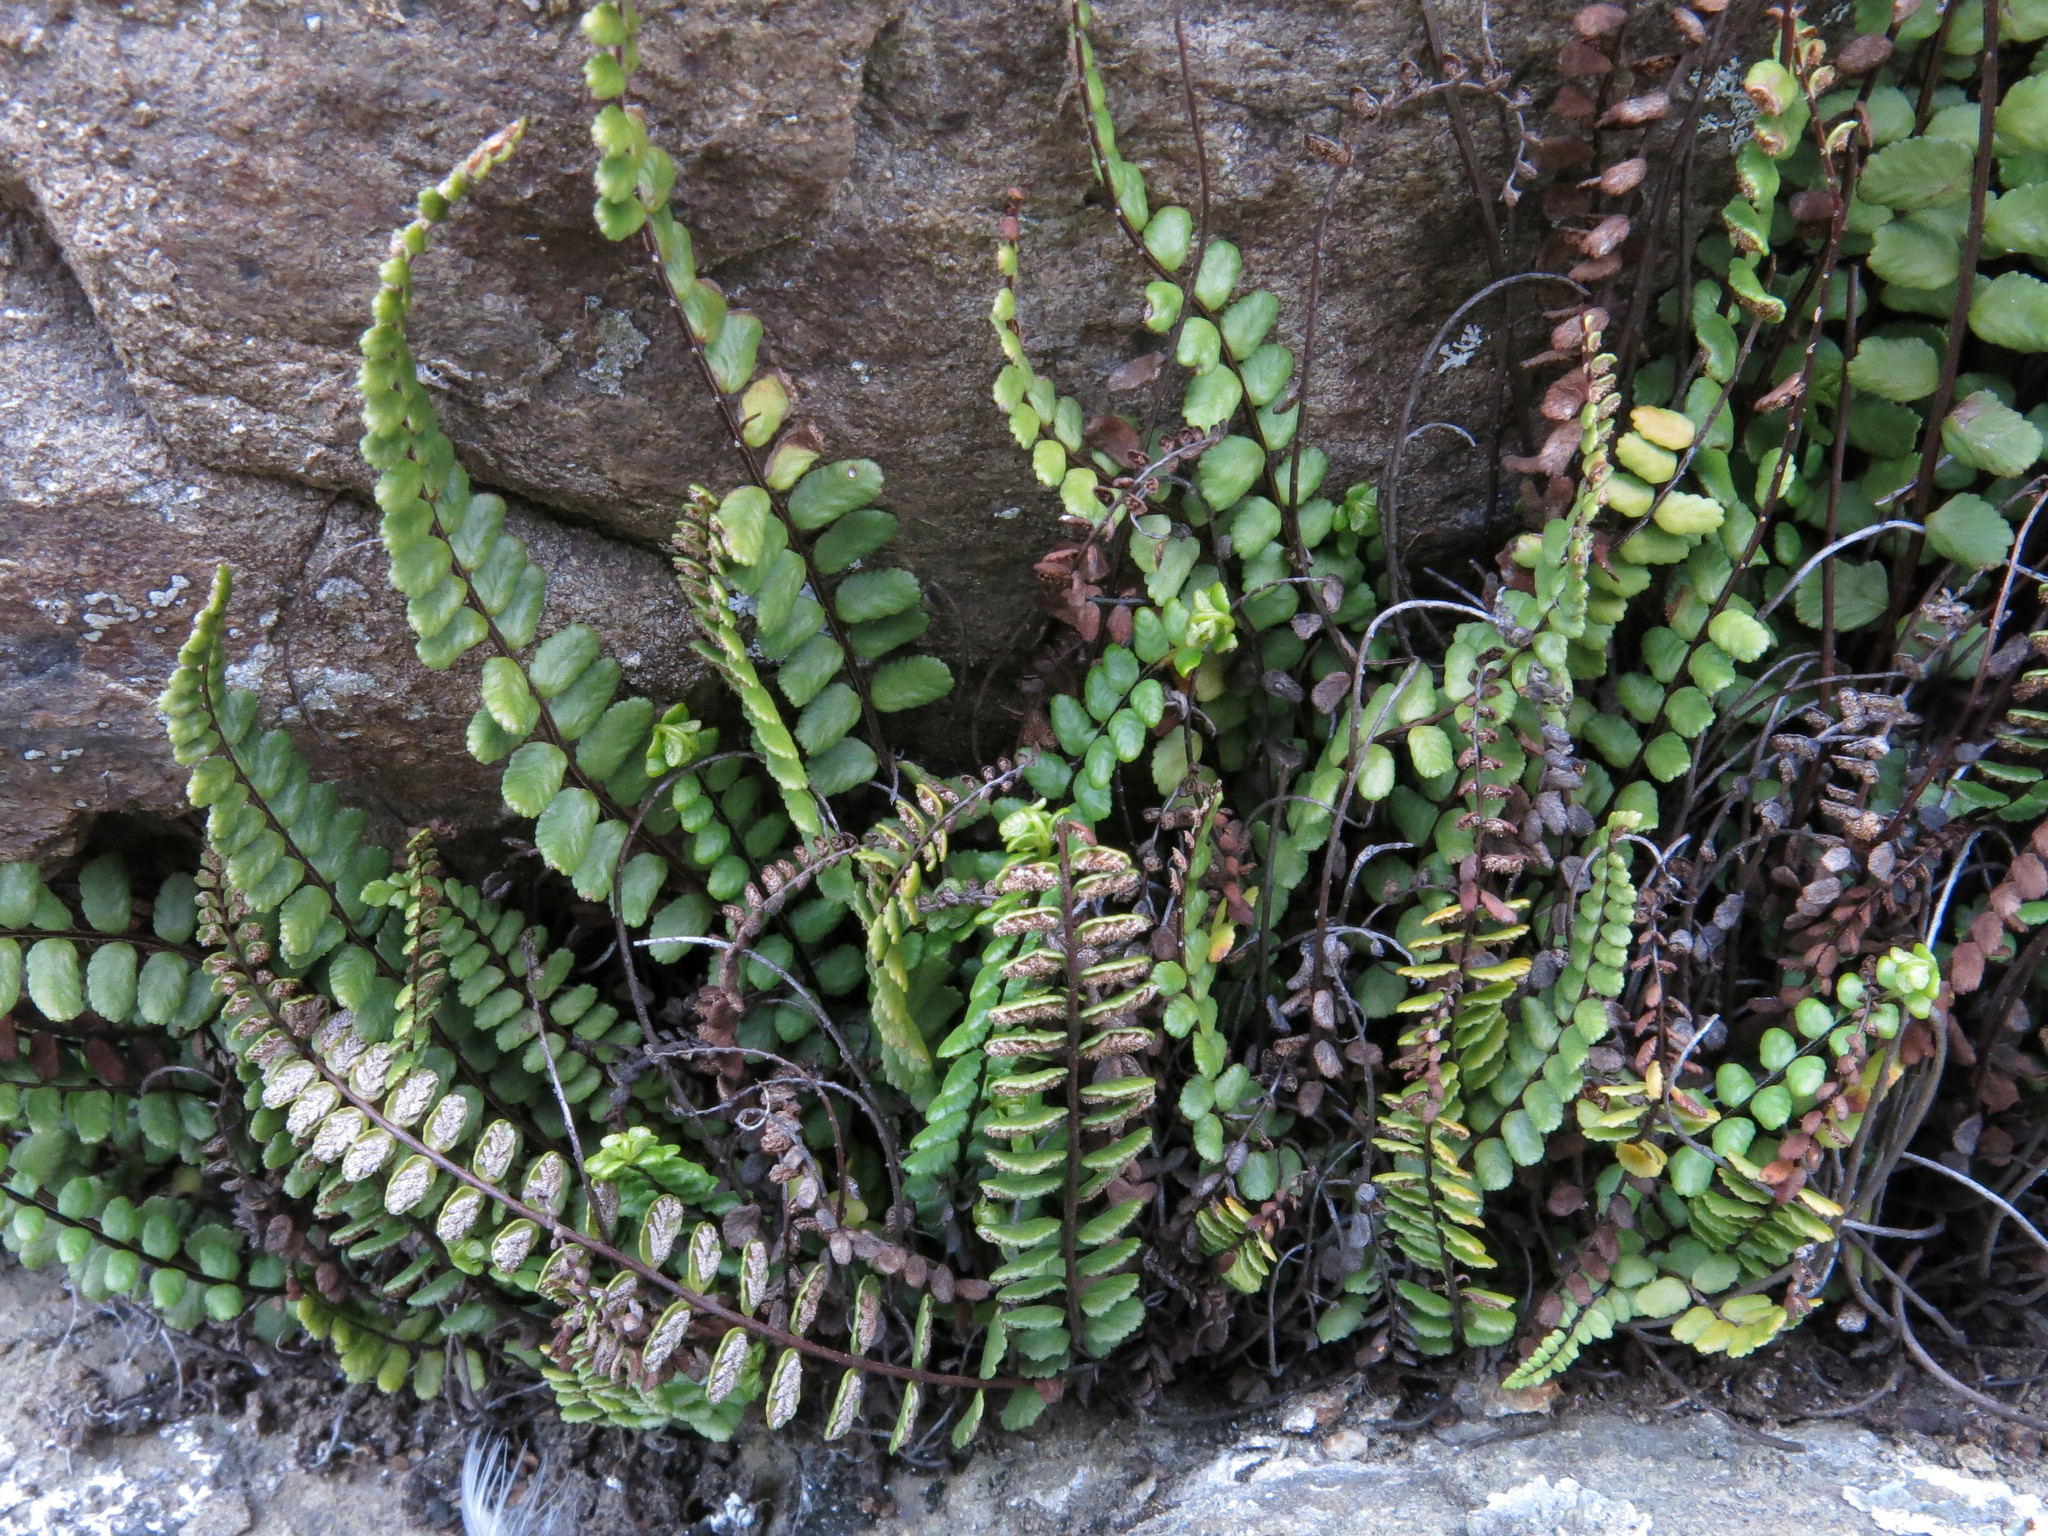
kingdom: Plantae
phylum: Tracheophyta
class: Polypodiopsida
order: Polypodiales
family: Aspleniaceae
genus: Asplenium
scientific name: Asplenium trichomanes
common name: Maidenhair spleenwort
